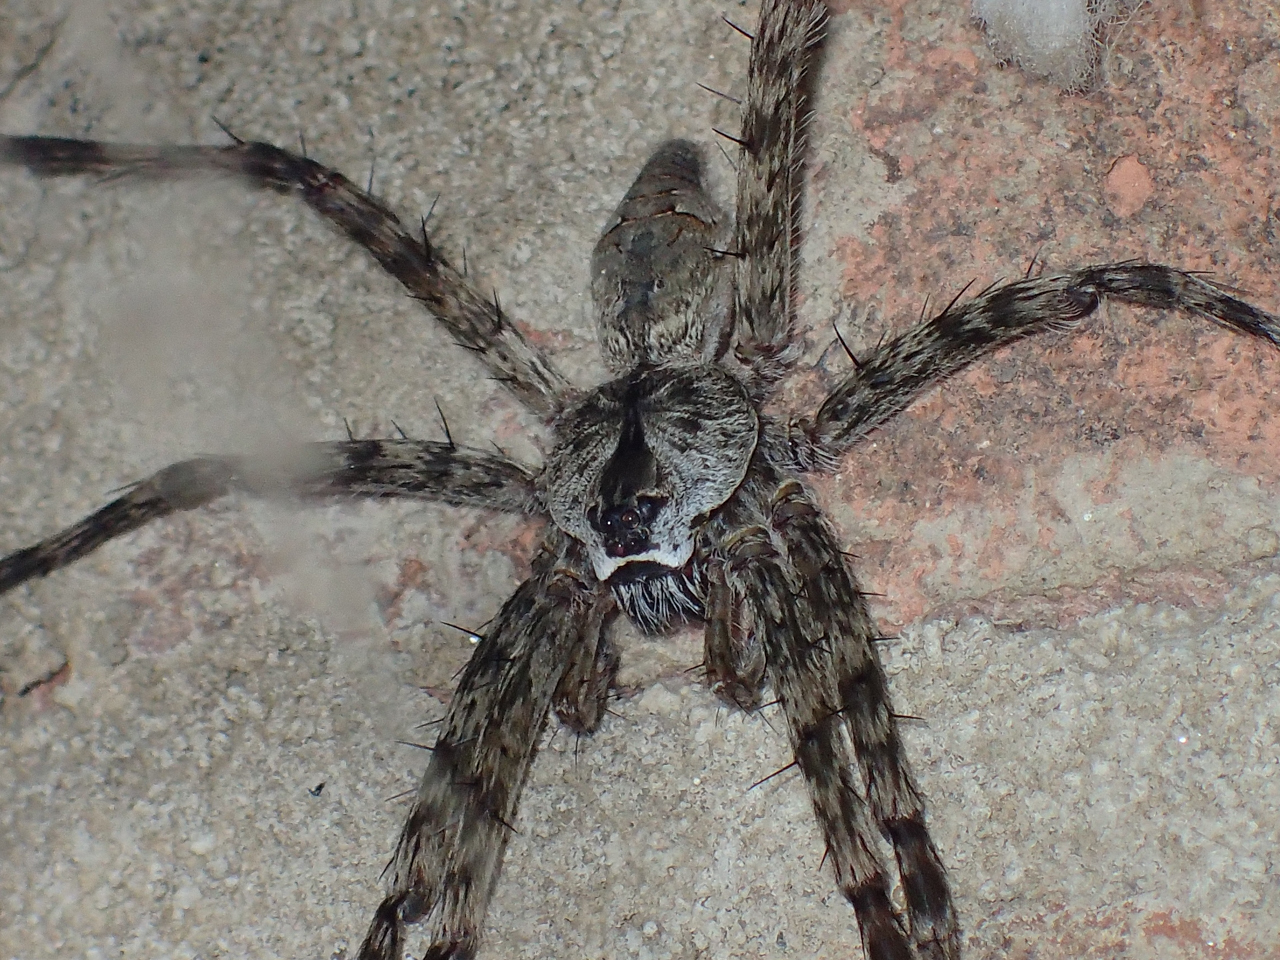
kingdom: Animalia
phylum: Arthropoda
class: Arachnida
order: Araneae
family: Pisauridae
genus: Dolomedes
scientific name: Dolomedes albineus
